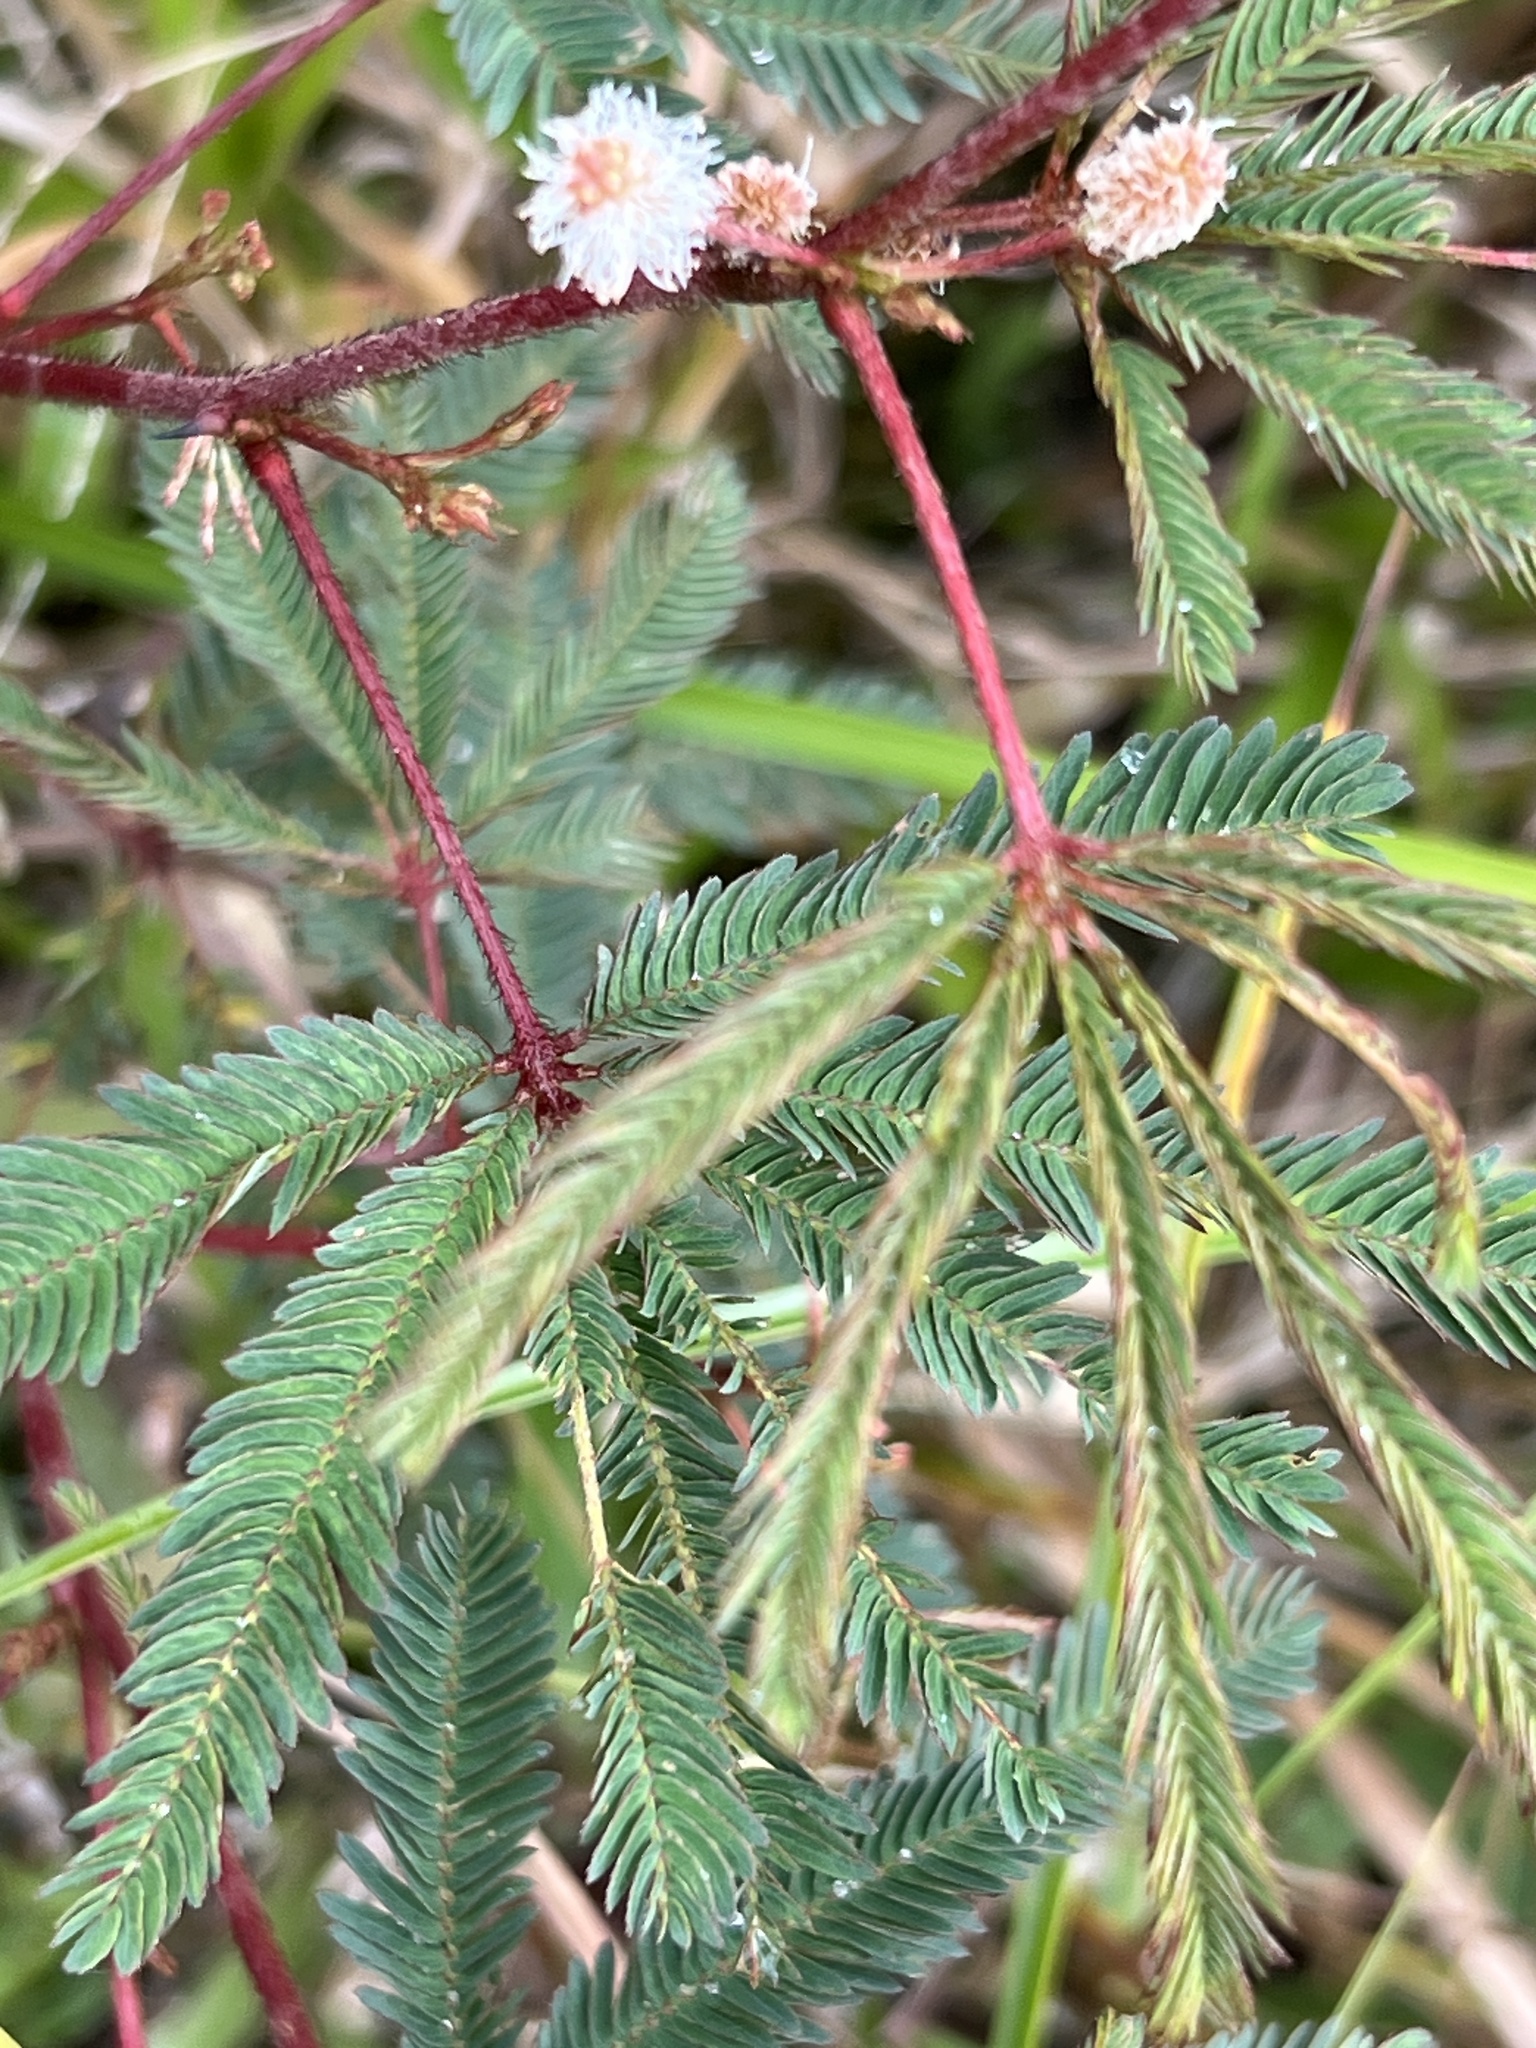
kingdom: Plantae
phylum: Tracheophyta
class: Magnoliopsida
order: Fabales
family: Fabaceae
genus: Mimosa
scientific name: Mimosa pudica
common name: Sensitive plant
